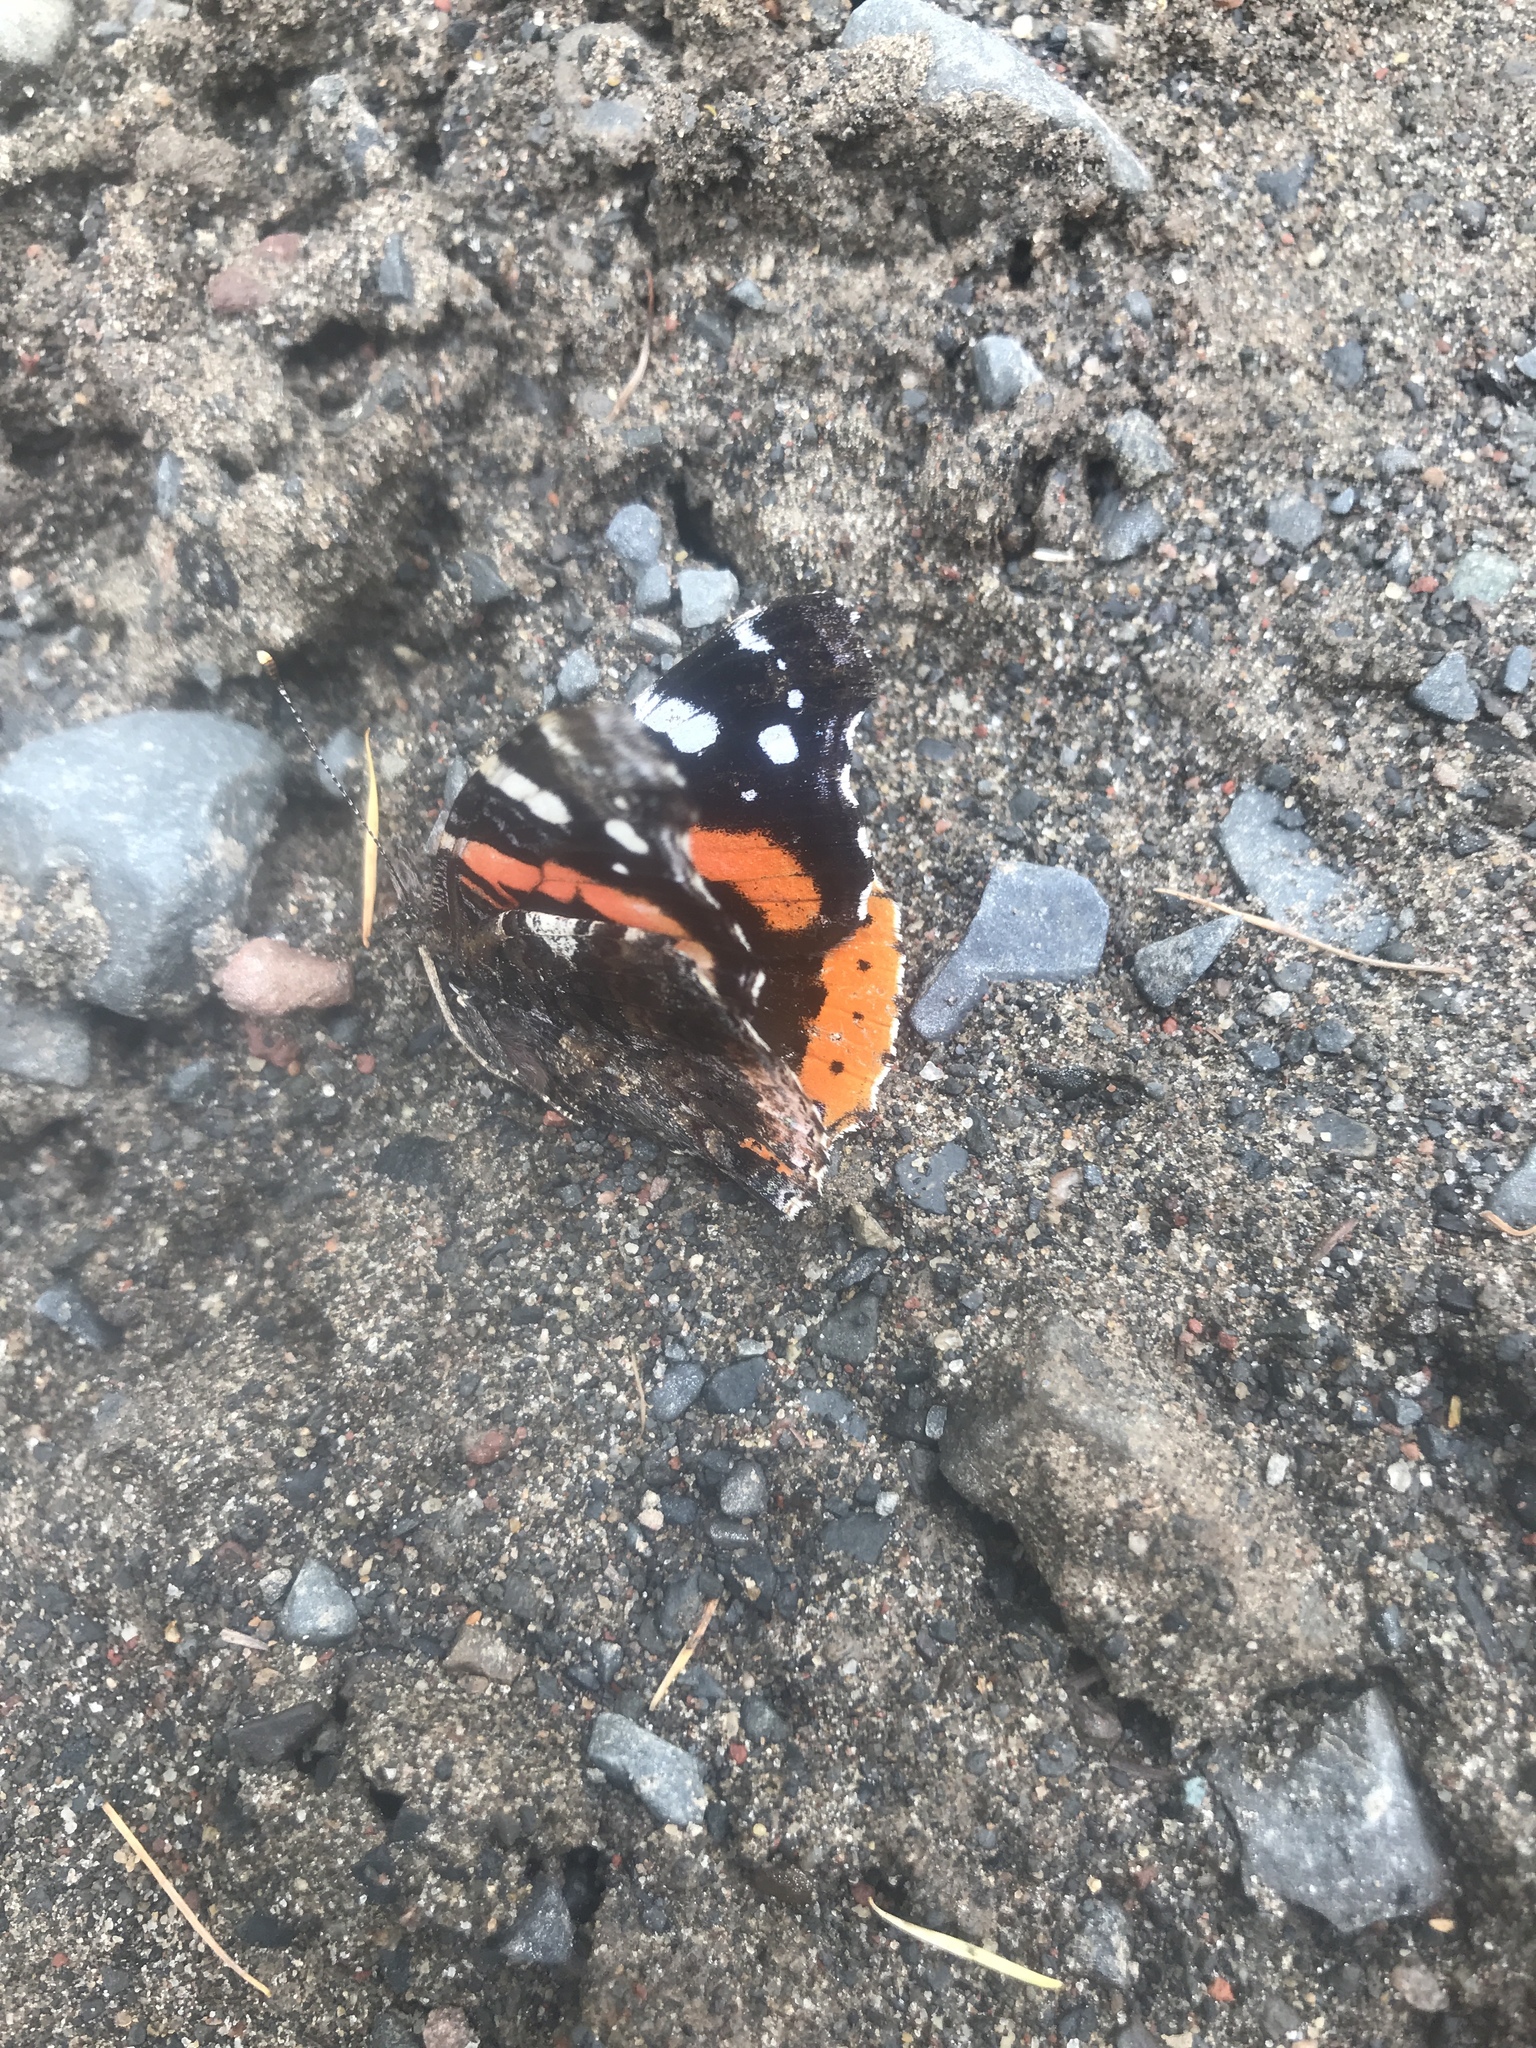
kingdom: Animalia
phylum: Arthropoda
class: Insecta
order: Lepidoptera
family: Nymphalidae
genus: Vanessa
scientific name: Vanessa atalanta
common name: Red admiral
